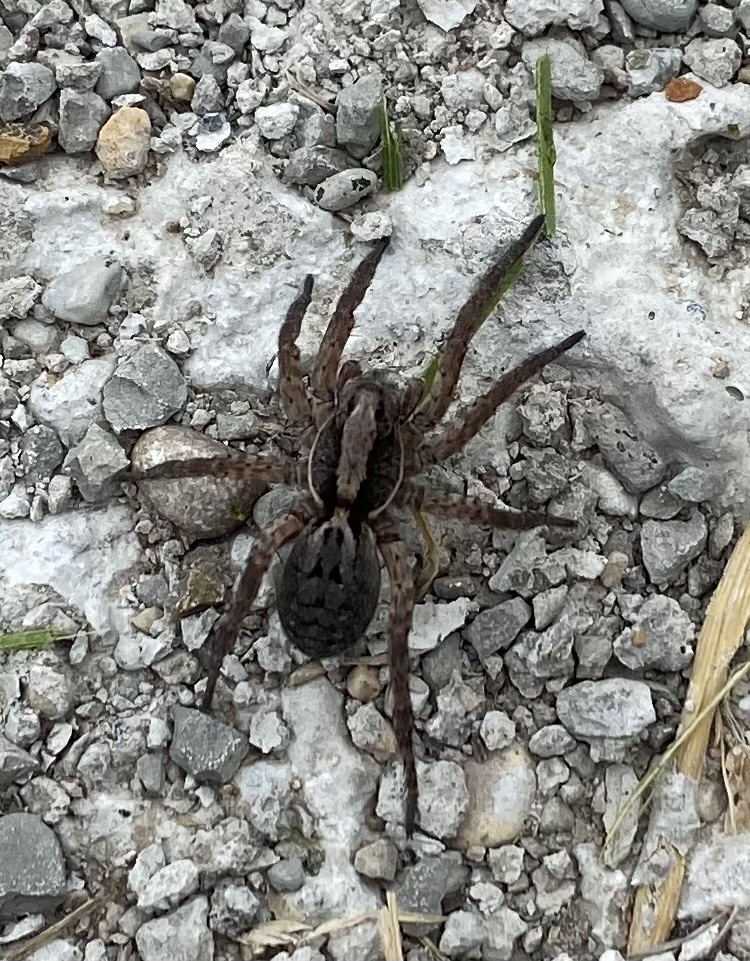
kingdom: Animalia
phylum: Arthropoda
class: Arachnida
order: Araneae
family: Lycosidae
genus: Hogna
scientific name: Hogna frondicola
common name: Forest wolf spider
